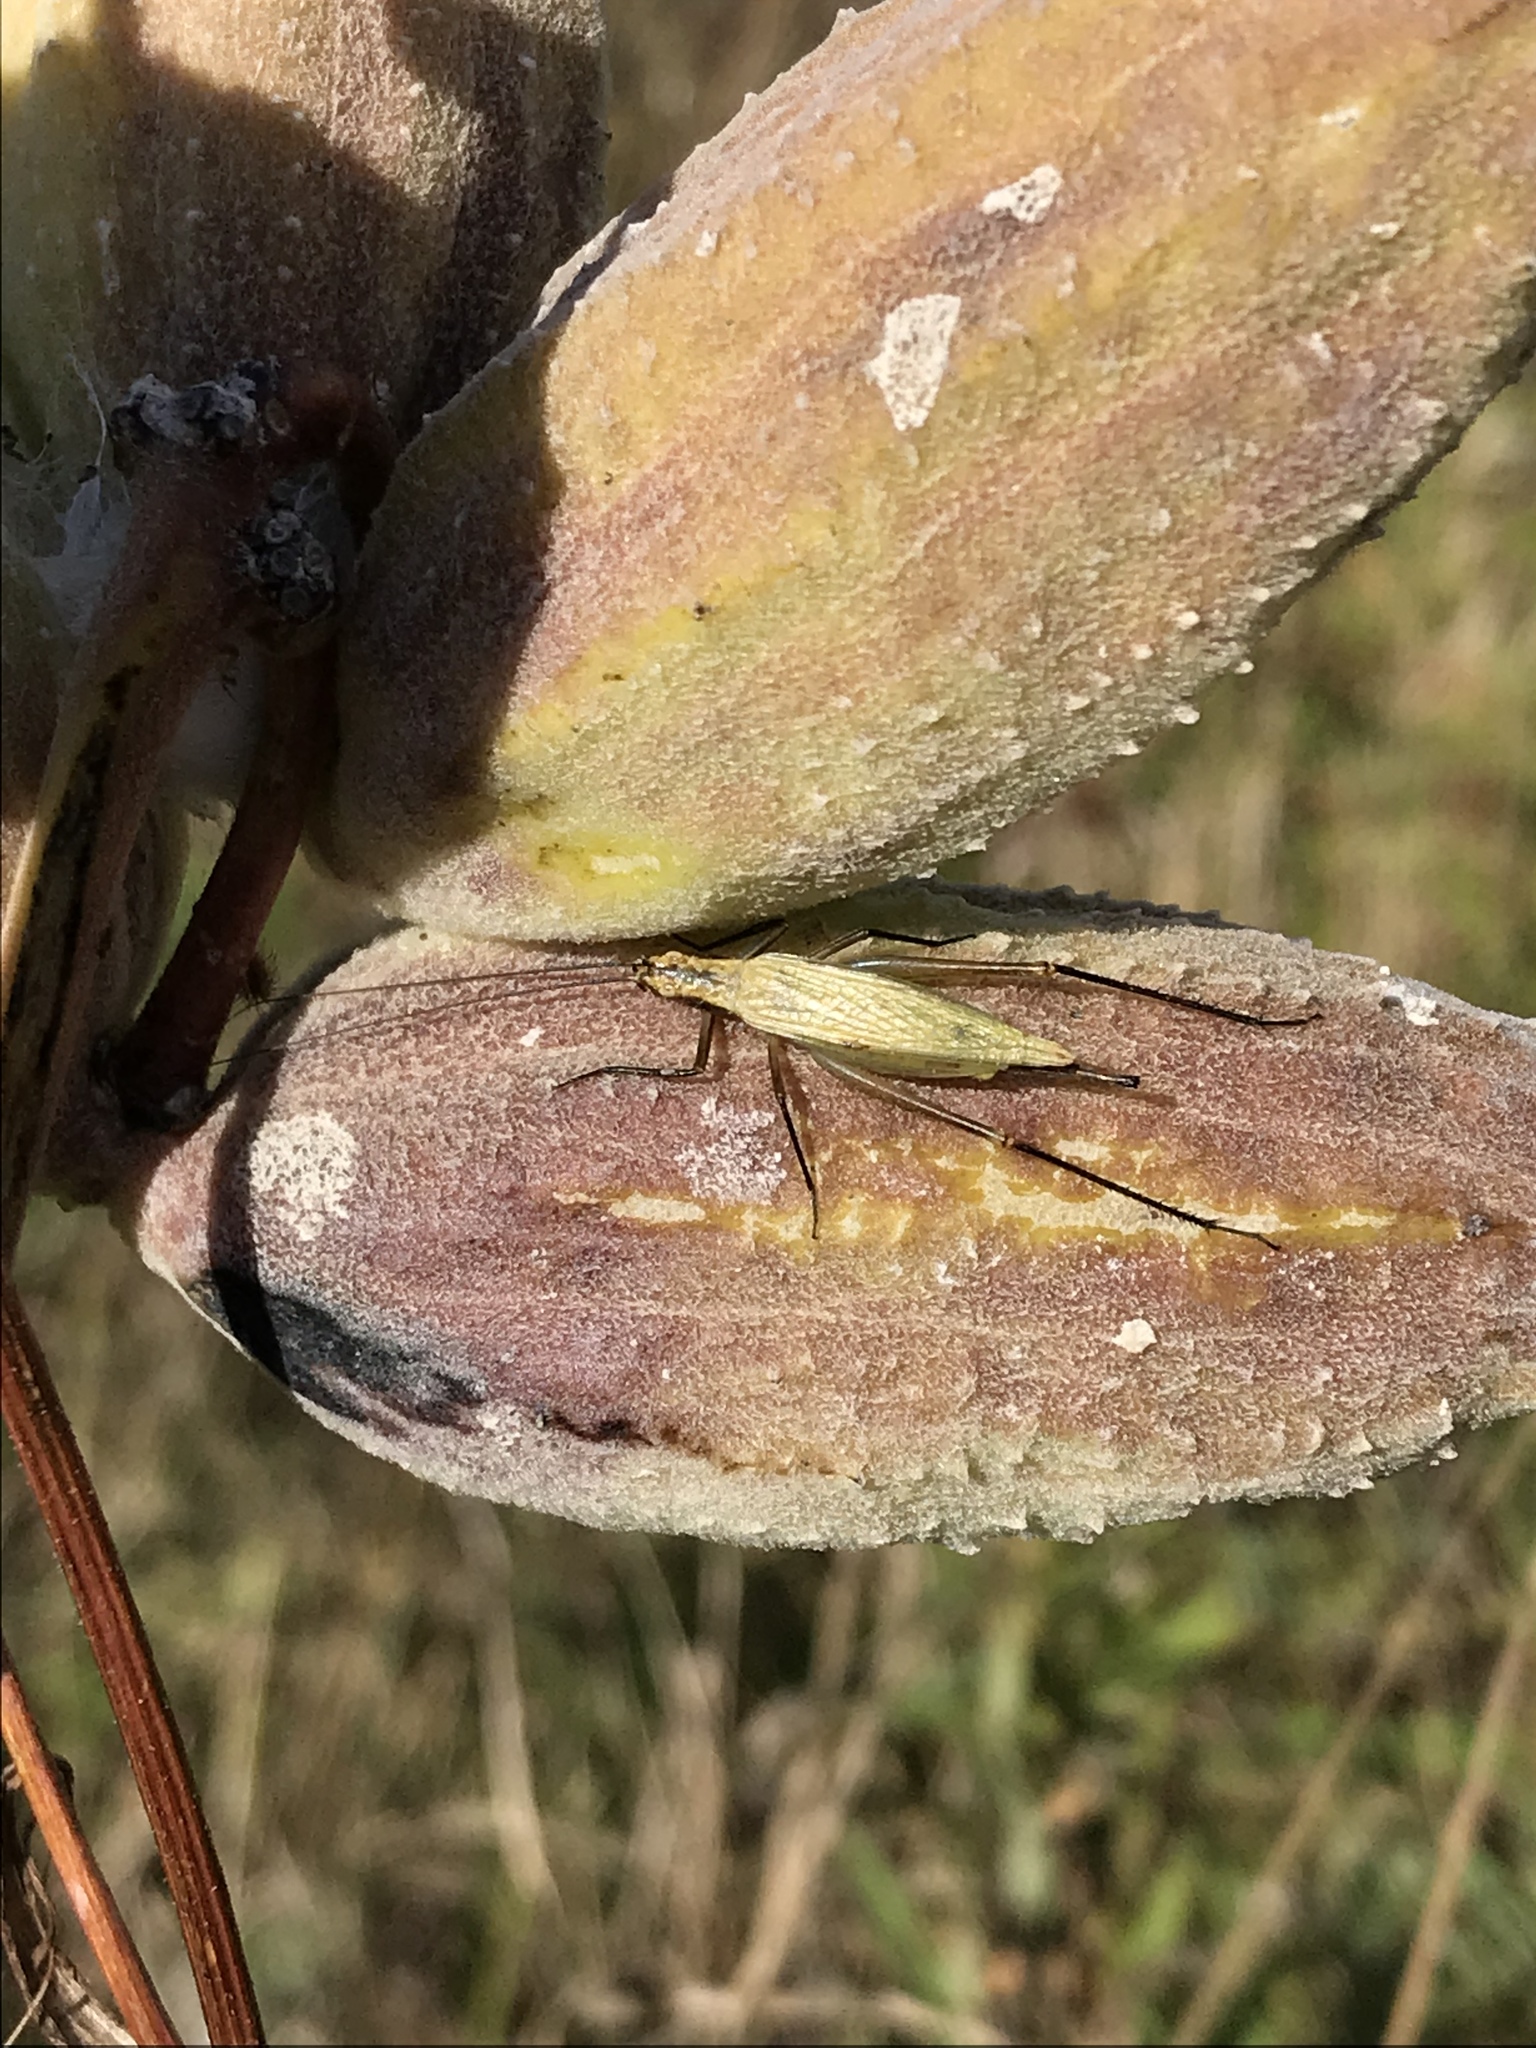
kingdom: Animalia
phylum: Arthropoda
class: Insecta
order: Orthoptera
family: Gryllidae
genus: Oecanthus
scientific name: Oecanthus nigricornis
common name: Black-horned tree cricket
